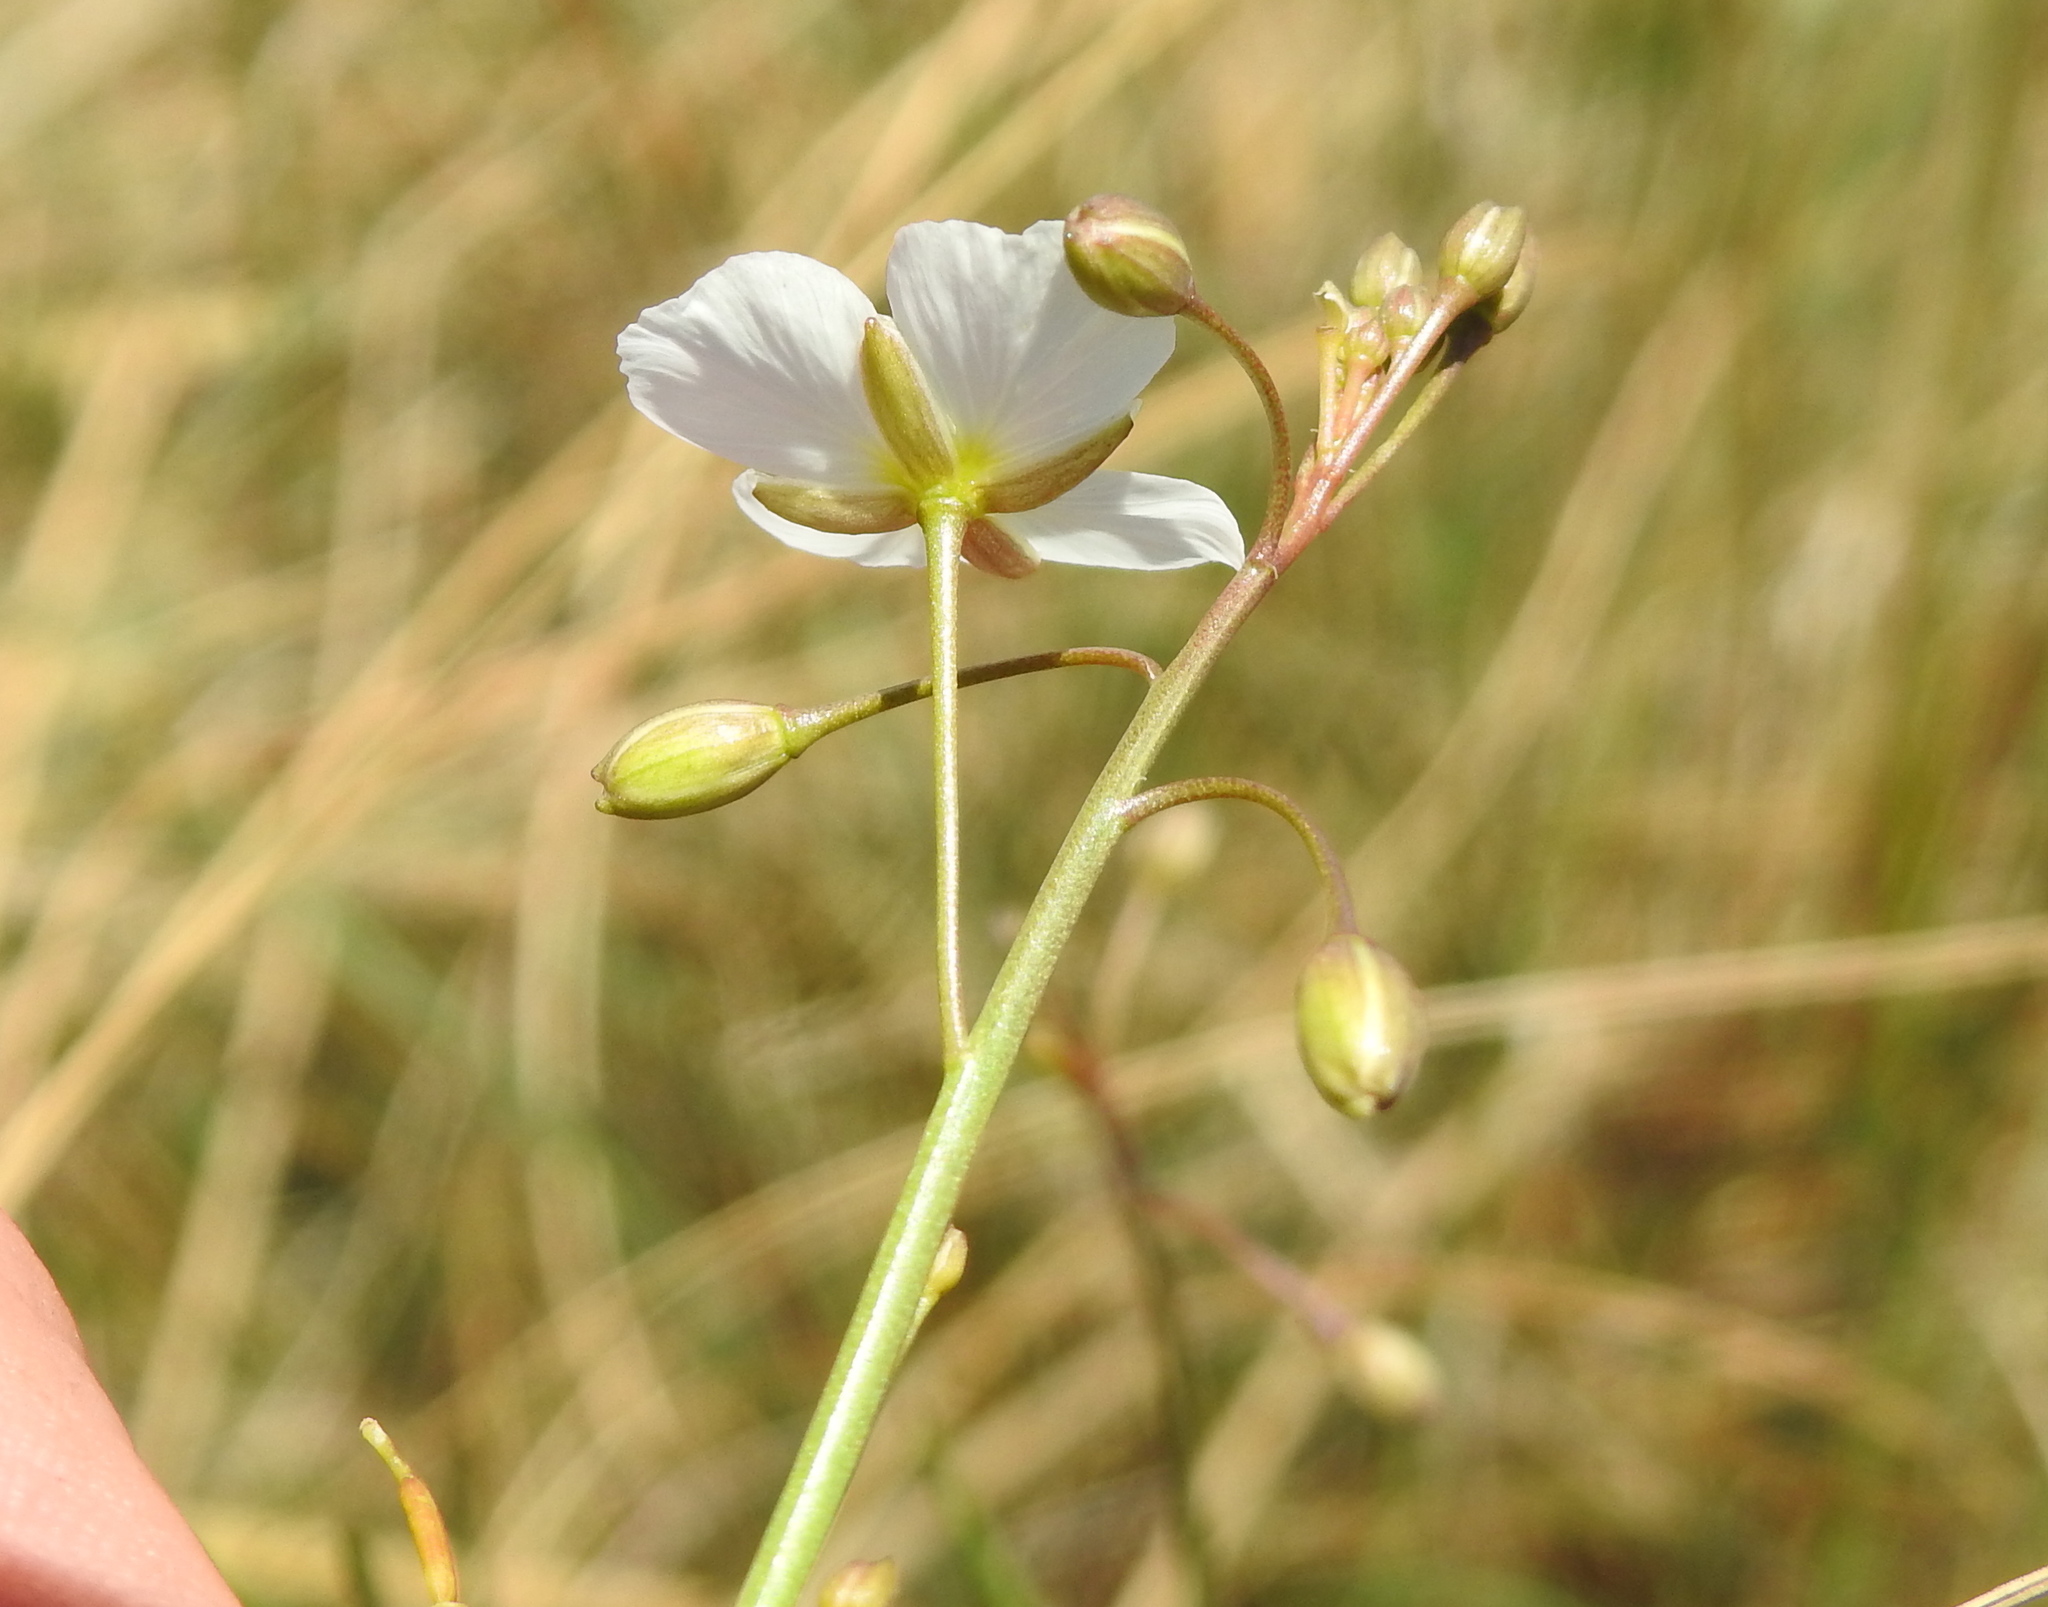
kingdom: Plantae
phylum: Tracheophyta
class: Magnoliopsida
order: Brassicales
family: Brassicaceae
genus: Heliophila
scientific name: Heliophila carnosa
